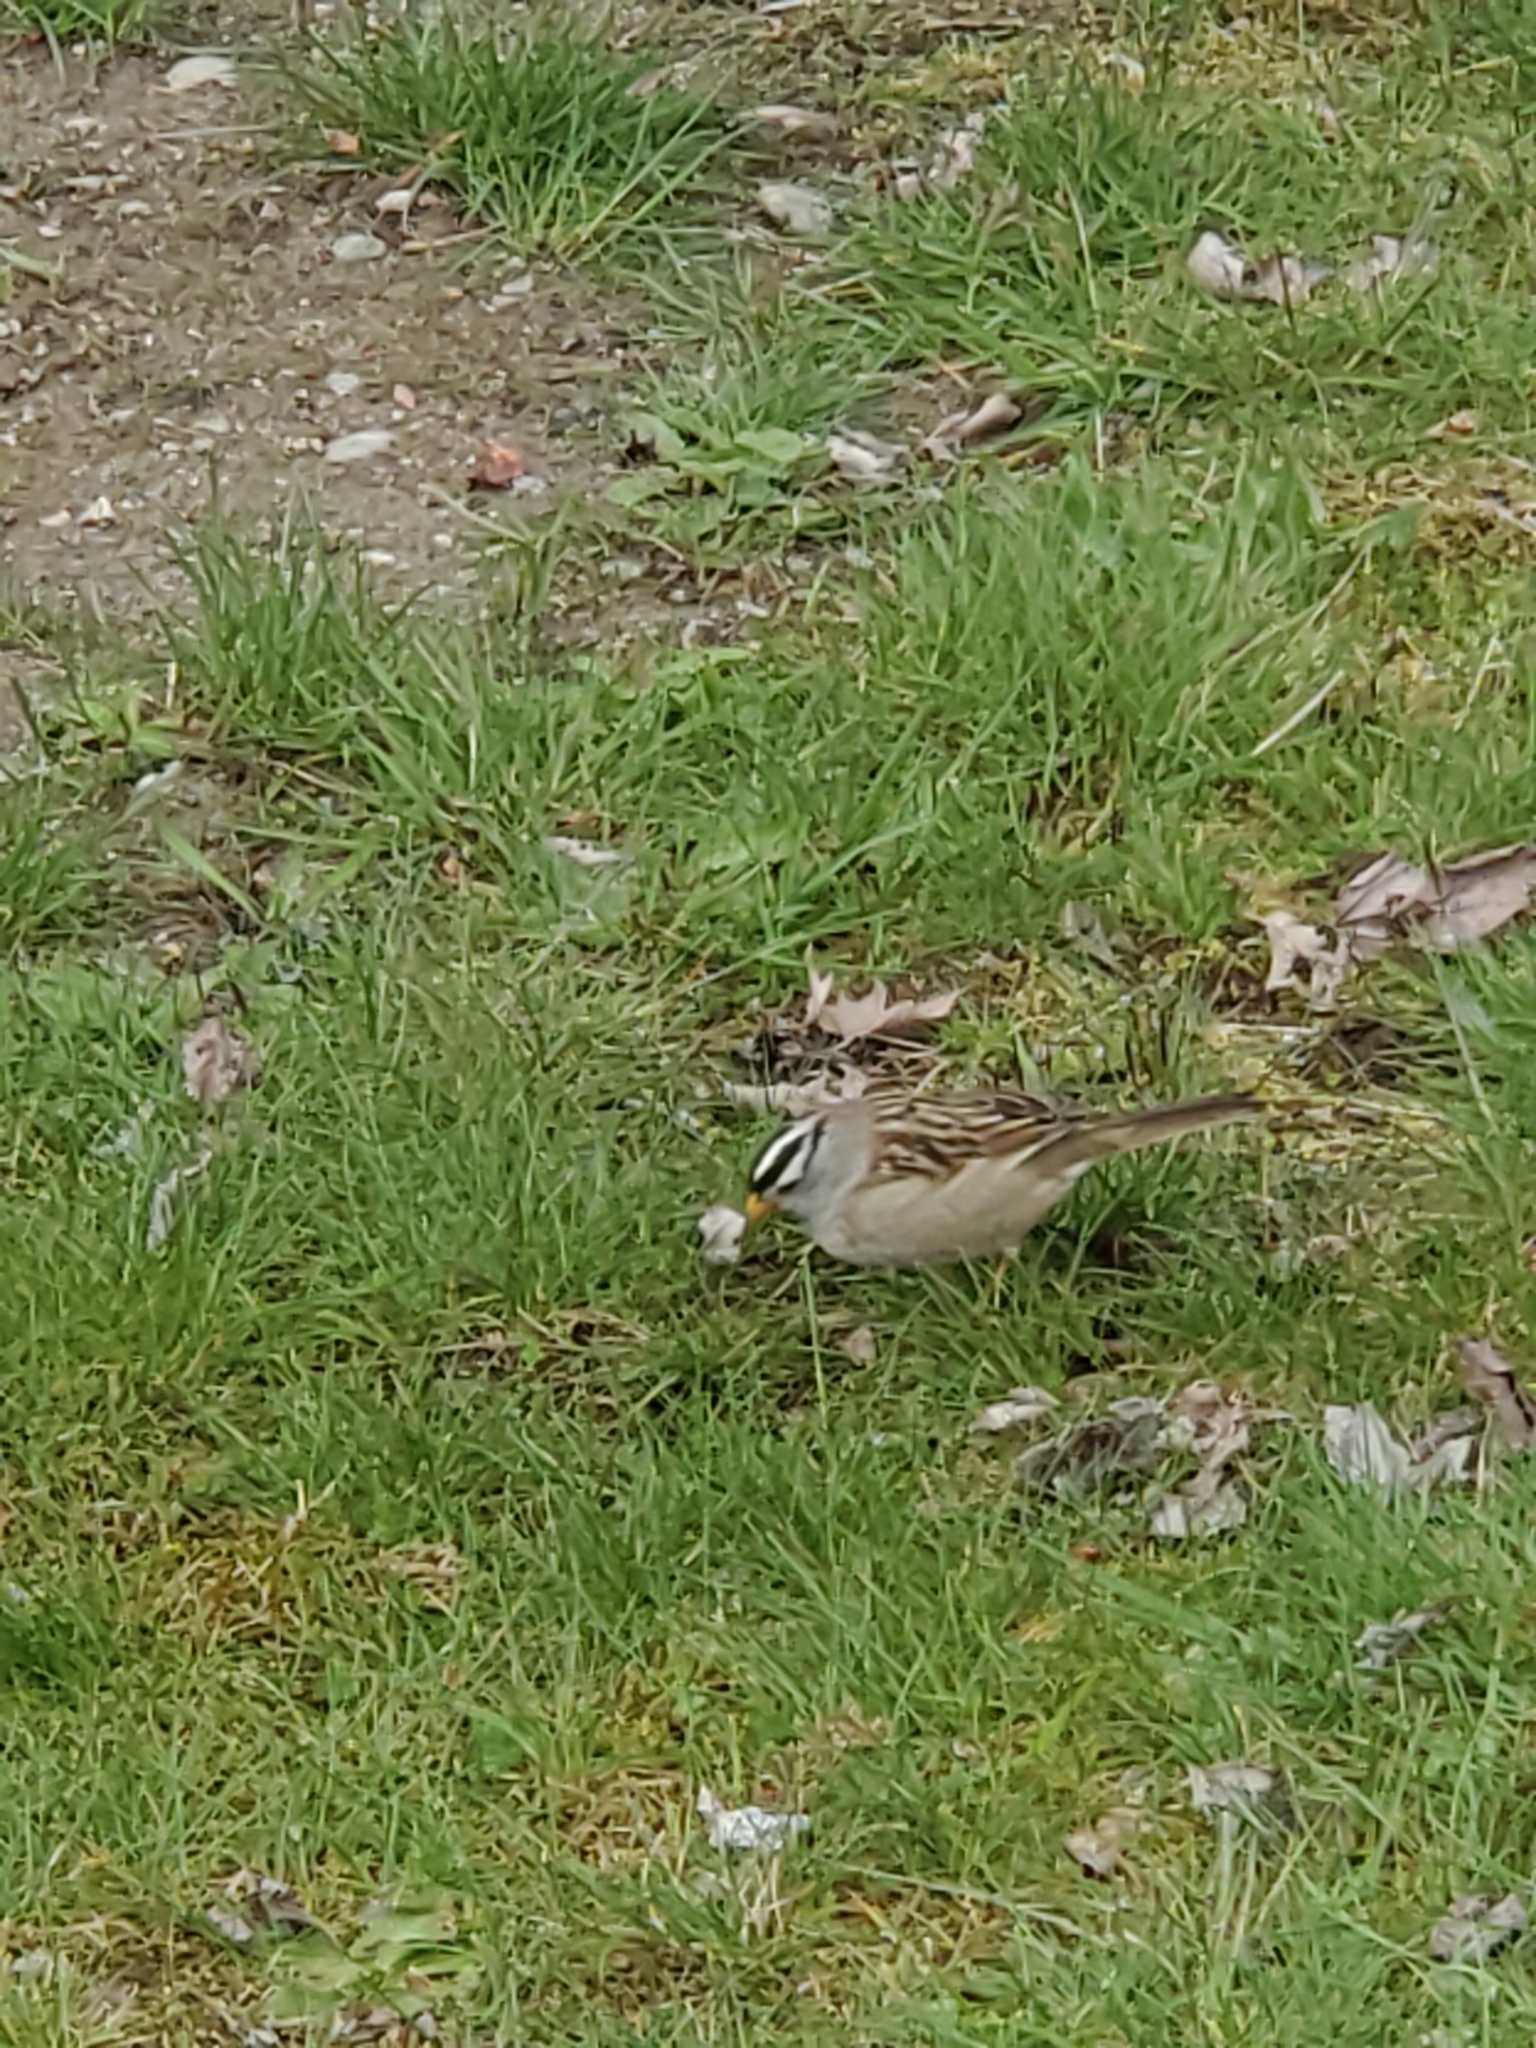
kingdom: Animalia
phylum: Chordata
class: Aves
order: Passeriformes
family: Passerellidae
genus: Zonotrichia
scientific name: Zonotrichia leucophrys
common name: White-crowned sparrow
